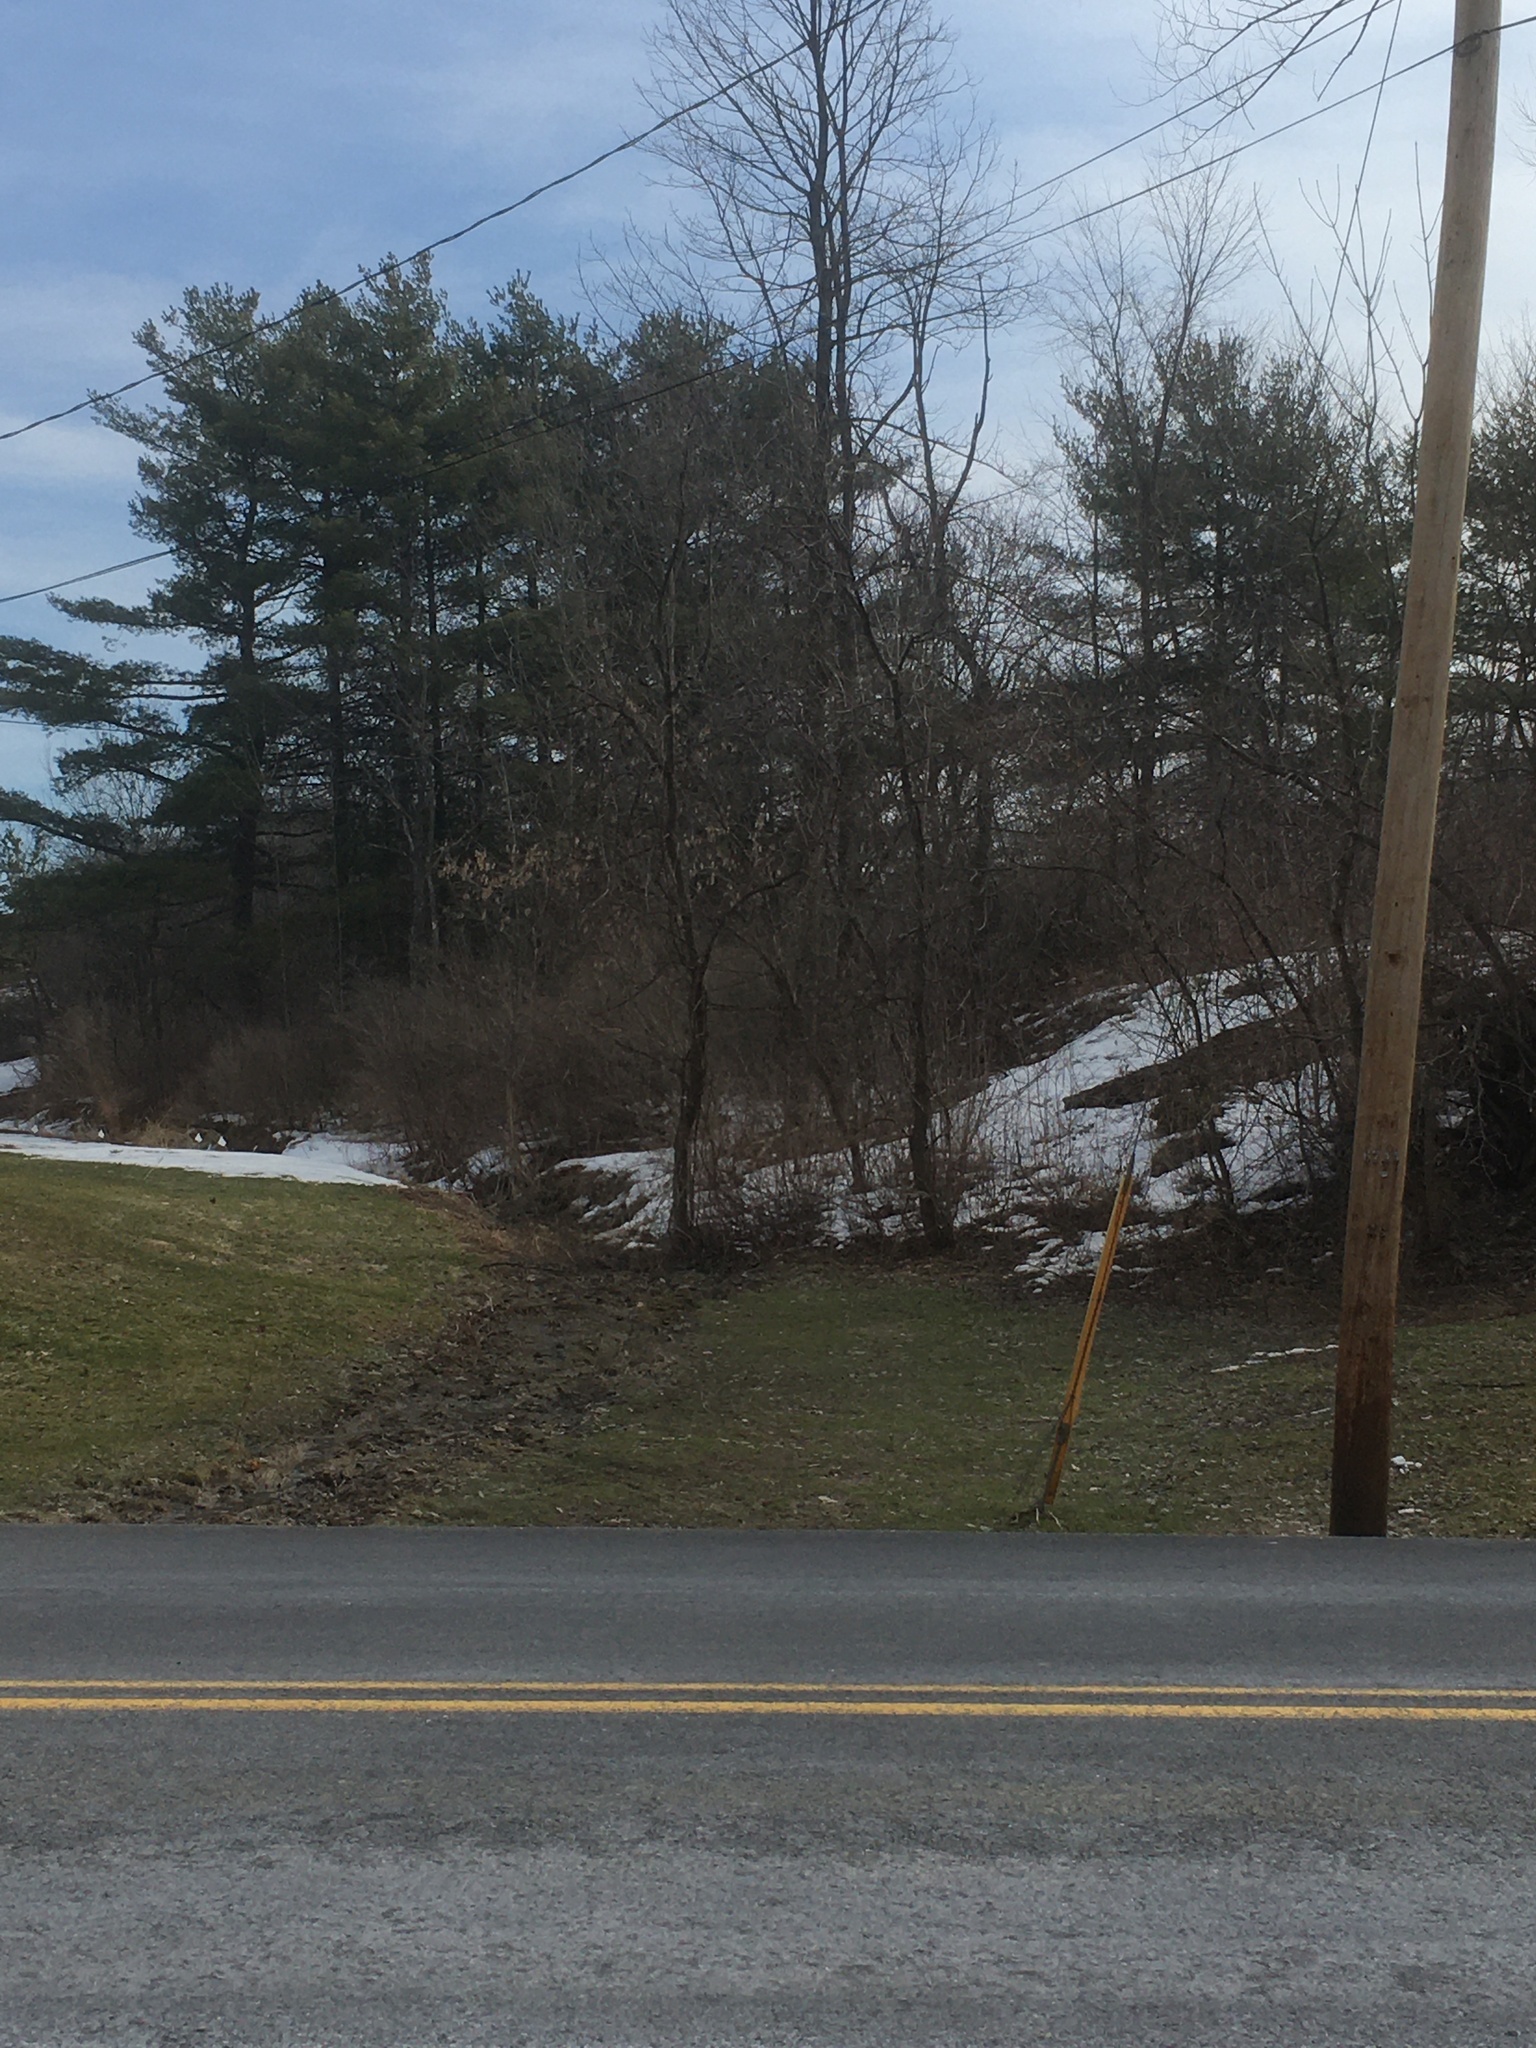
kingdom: Plantae
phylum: Tracheophyta
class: Magnoliopsida
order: Sapindales
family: Sapindaceae
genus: Acer
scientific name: Acer negundo
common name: Ashleaf maple
